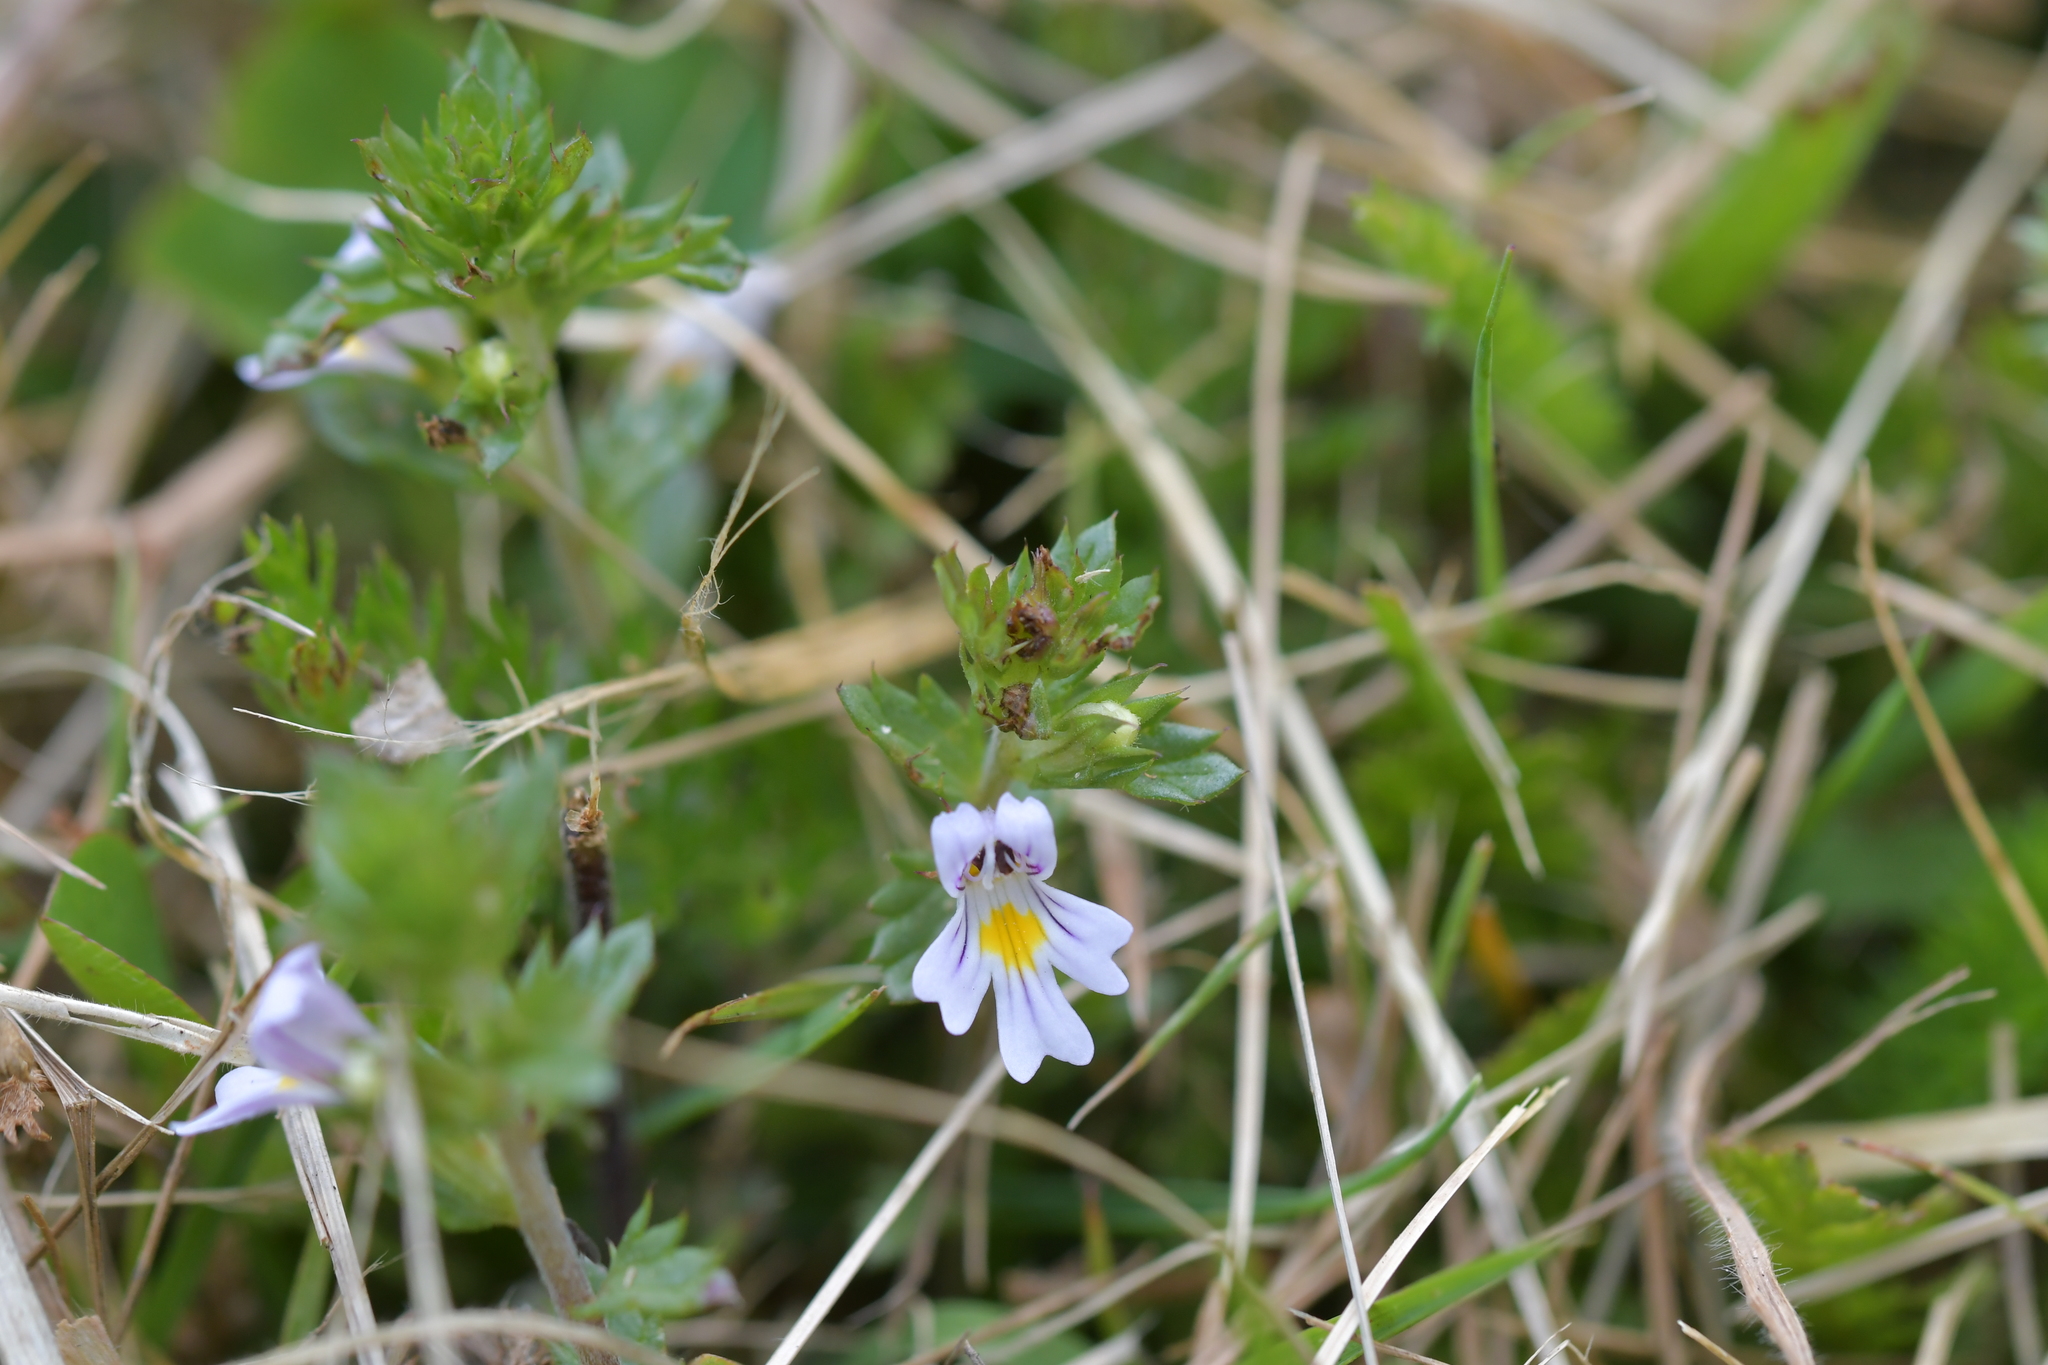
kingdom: Plantae
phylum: Tracheophyta
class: Magnoliopsida
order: Lamiales
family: Orobanchaceae
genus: Euphrasia
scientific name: Euphrasia nemorosa
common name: Common eyebright
